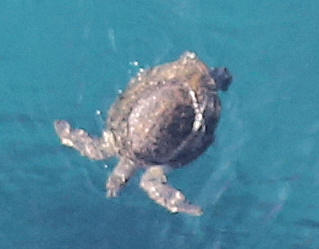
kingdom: Animalia
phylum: Chordata
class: Testudines
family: Cheloniidae
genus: Chelonia
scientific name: Chelonia mydas
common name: Green turtle
